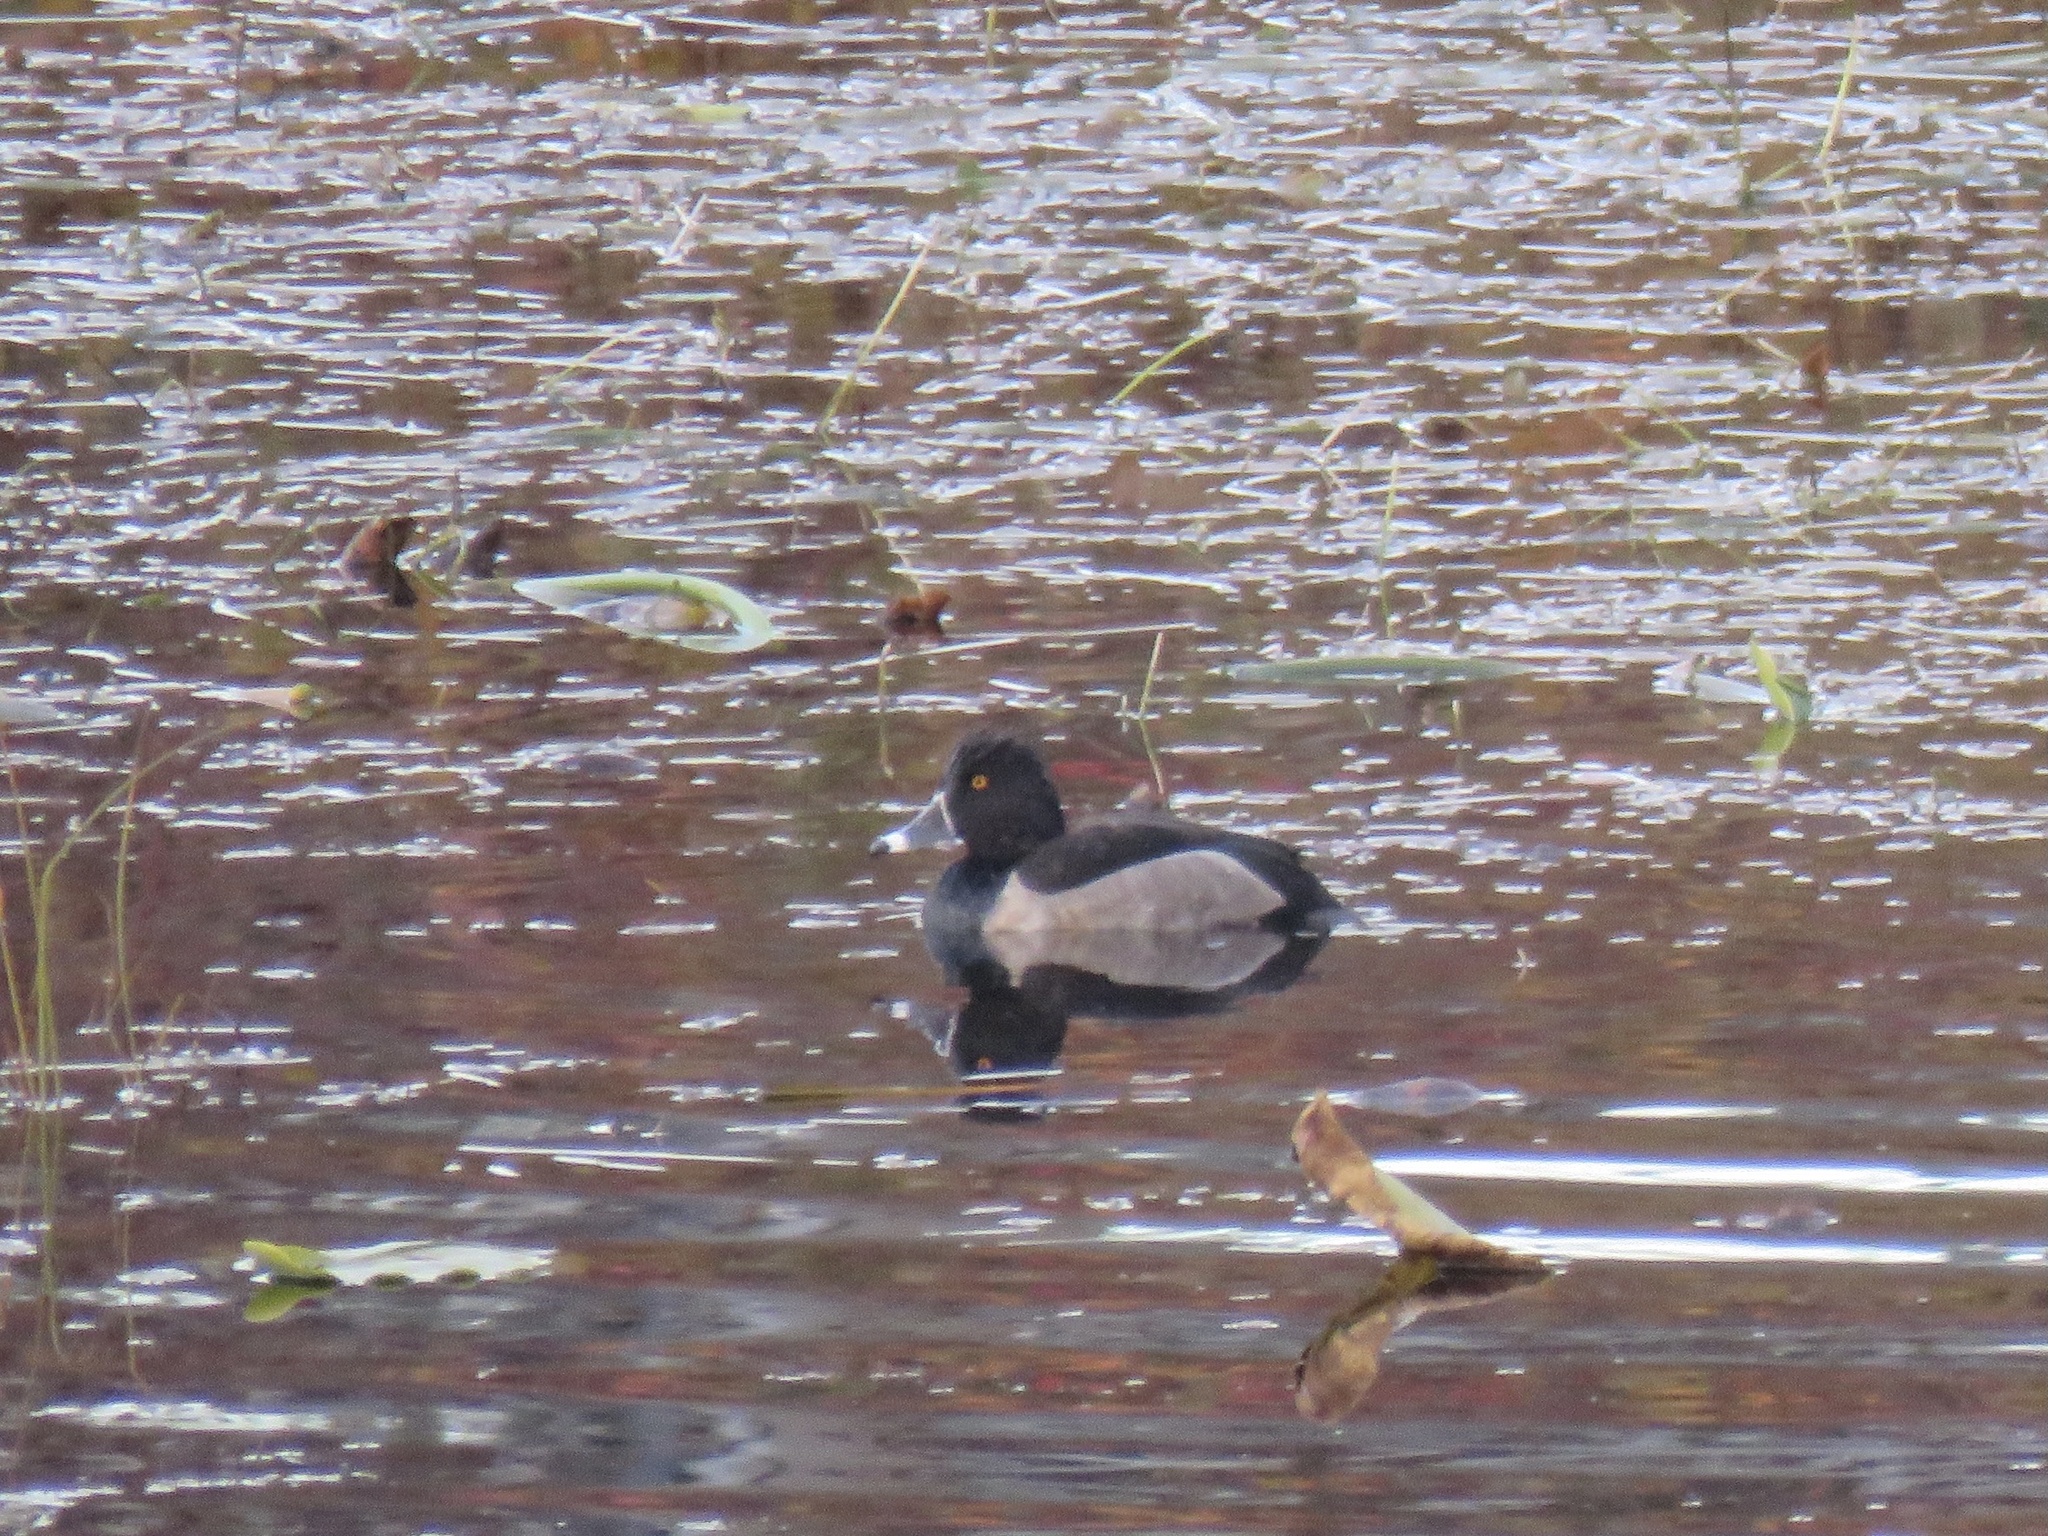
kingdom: Animalia
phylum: Chordata
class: Aves
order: Anseriformes
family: Anatidae
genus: Aythya
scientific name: Aythya collaris
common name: Ring-necked duck
